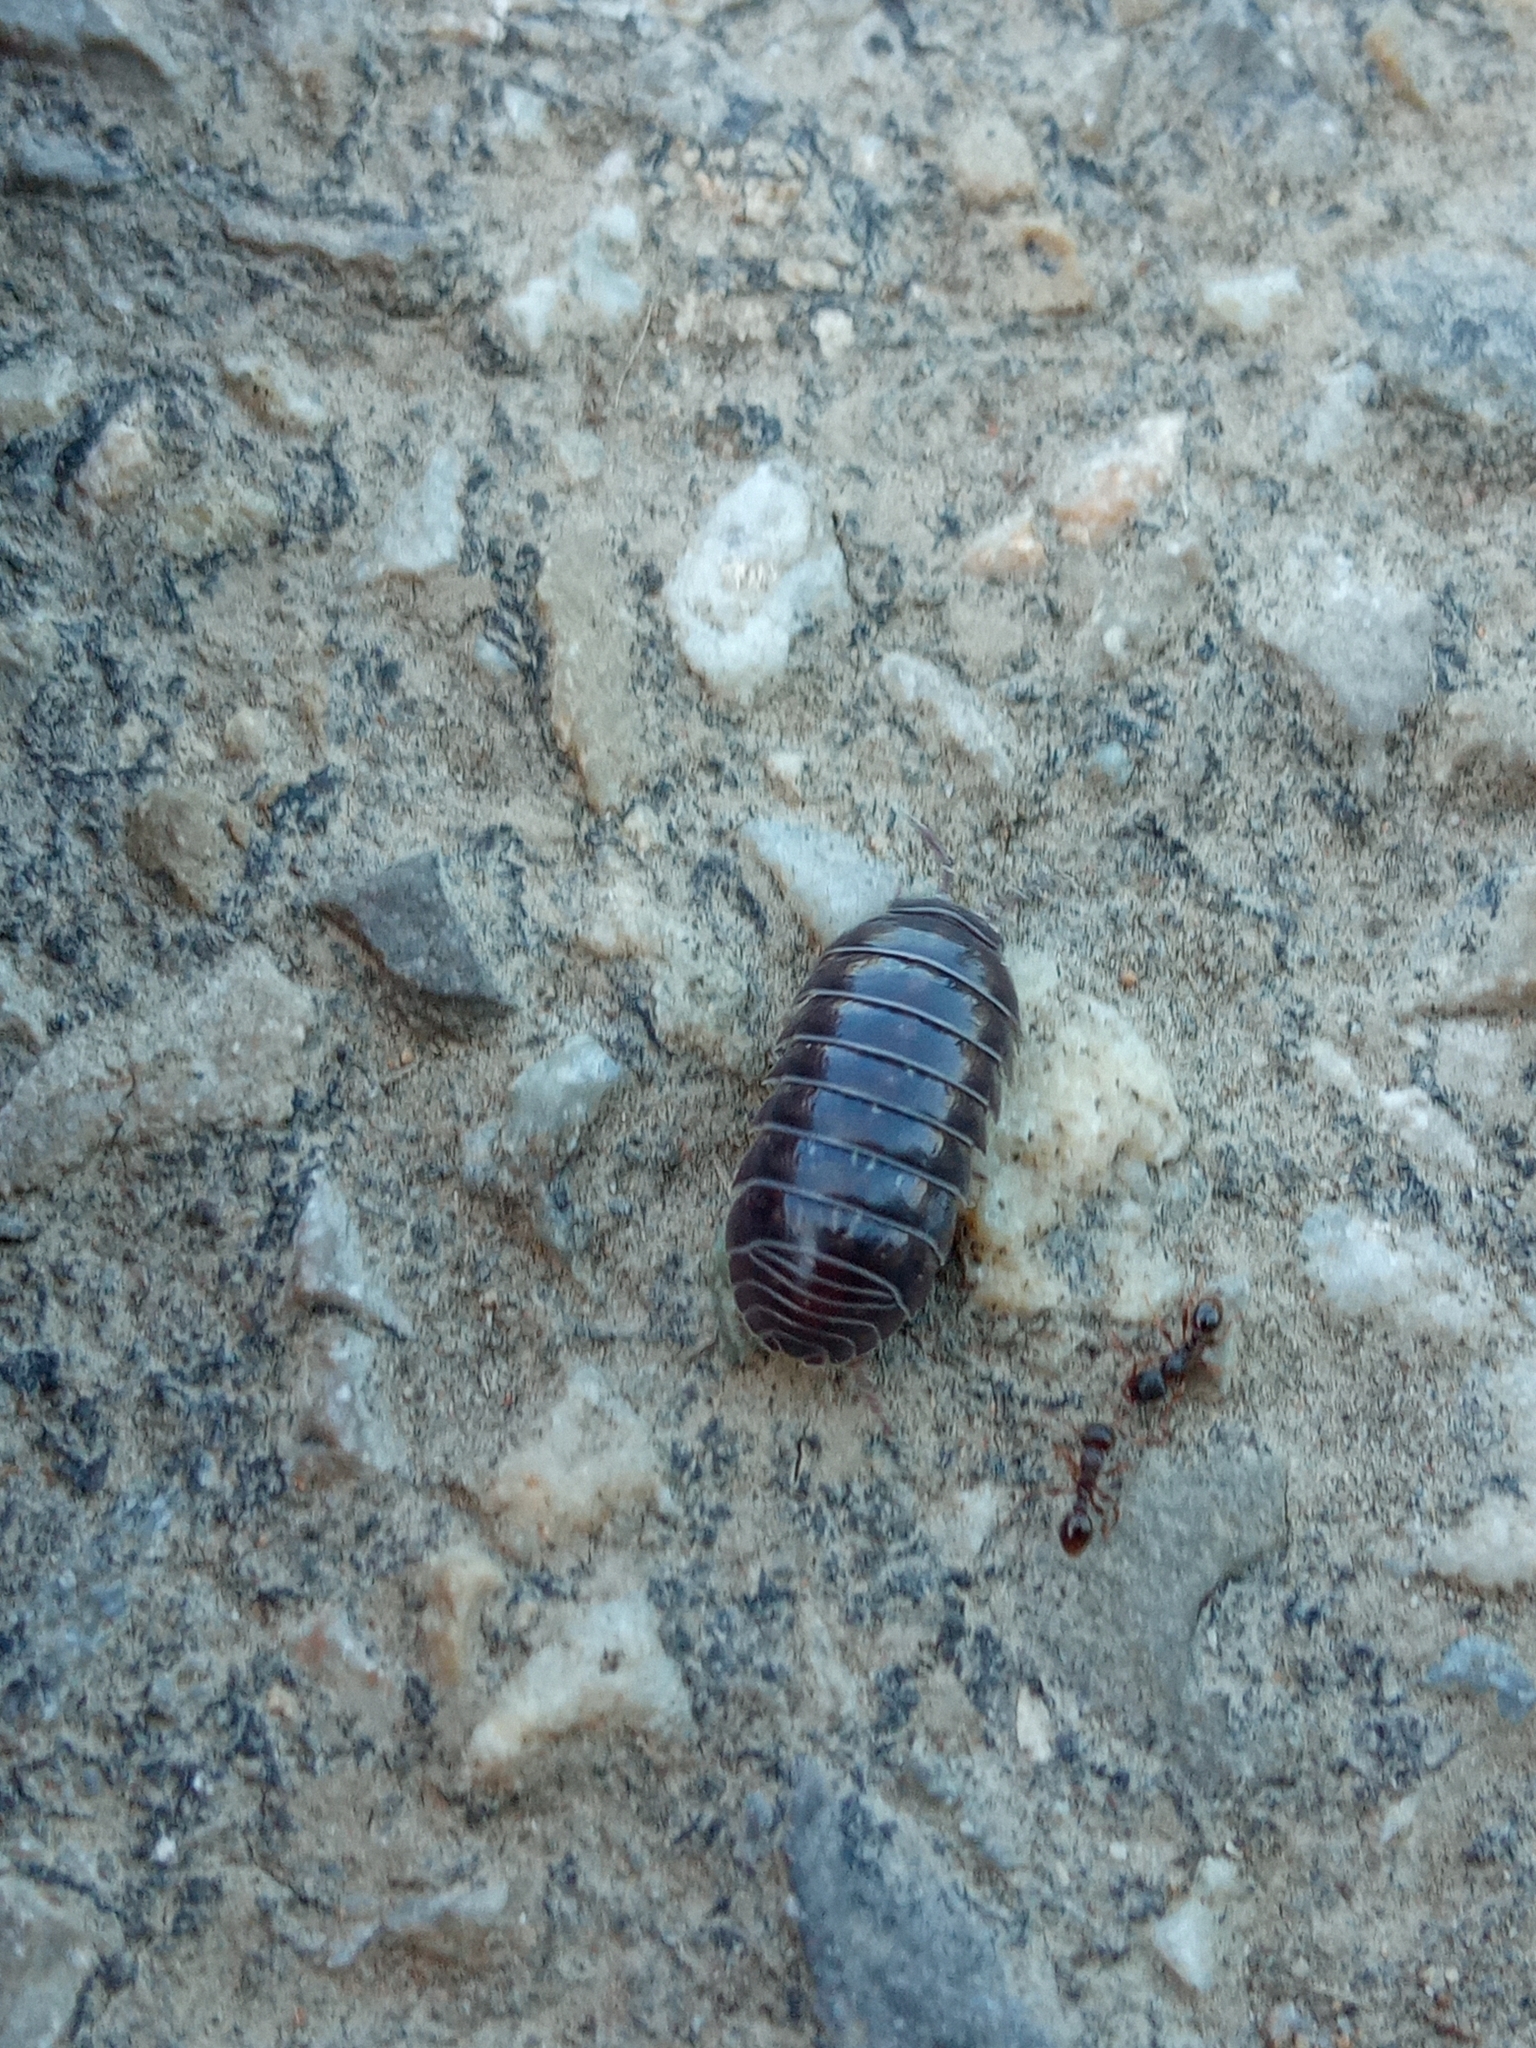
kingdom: Animalia
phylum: Arthropoda
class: Malacostraca
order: Isopoda
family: Armadillidiidae
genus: Armadillidium
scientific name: Armadillidium vulgare
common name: Common pill woodlouse
